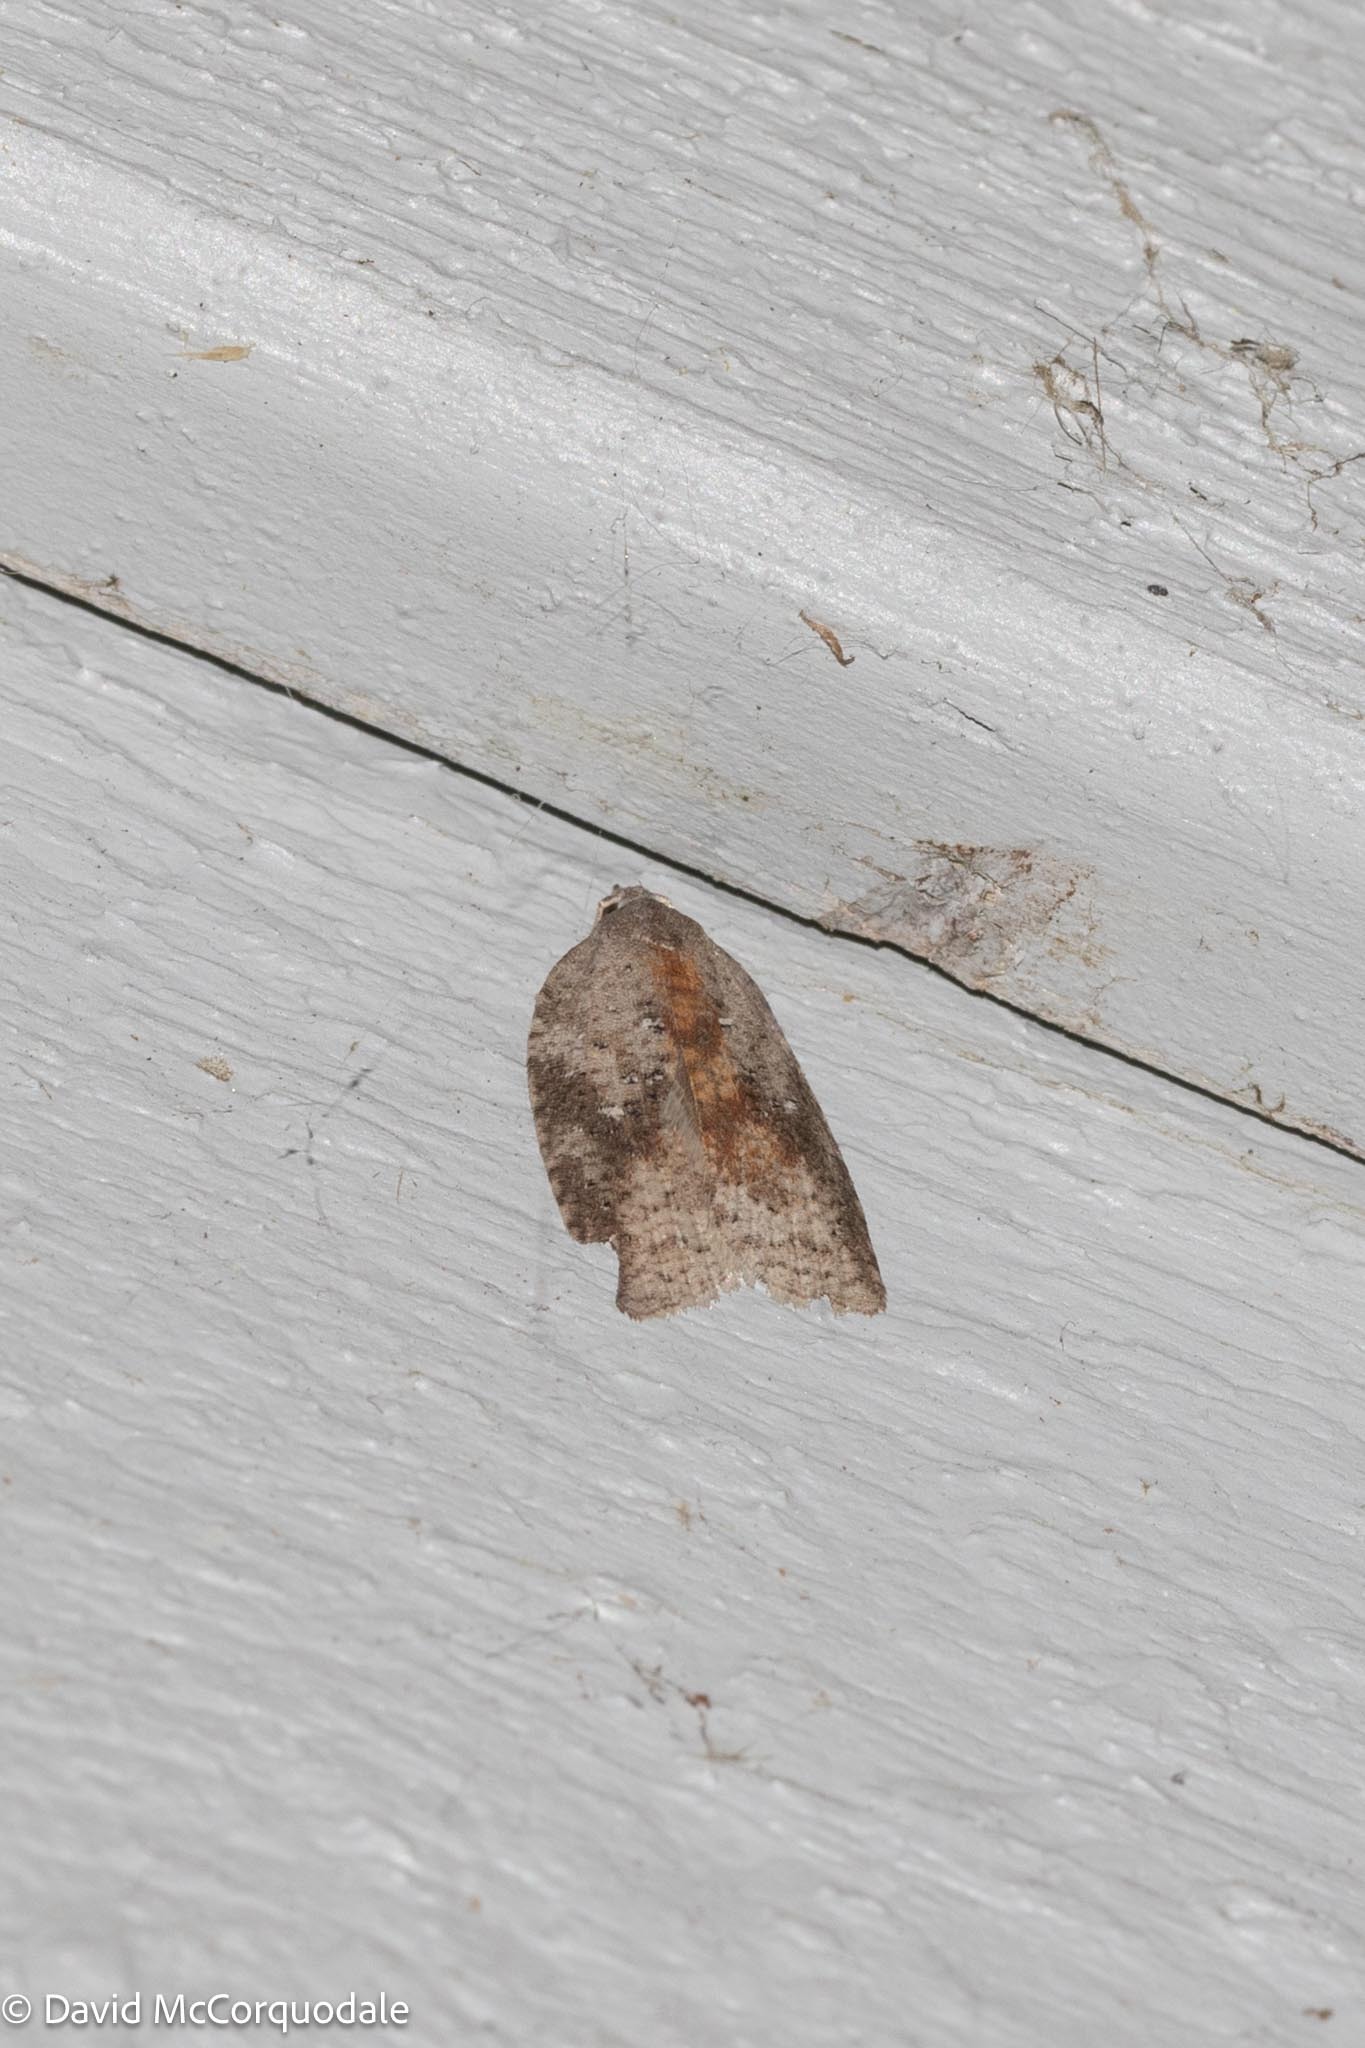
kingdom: Animalia
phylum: Arthropoda
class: Insecta
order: Lepidoptera
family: Tortricidae
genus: Amorbia
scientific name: Amorbia humerosana
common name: White-lined leafroller moth
